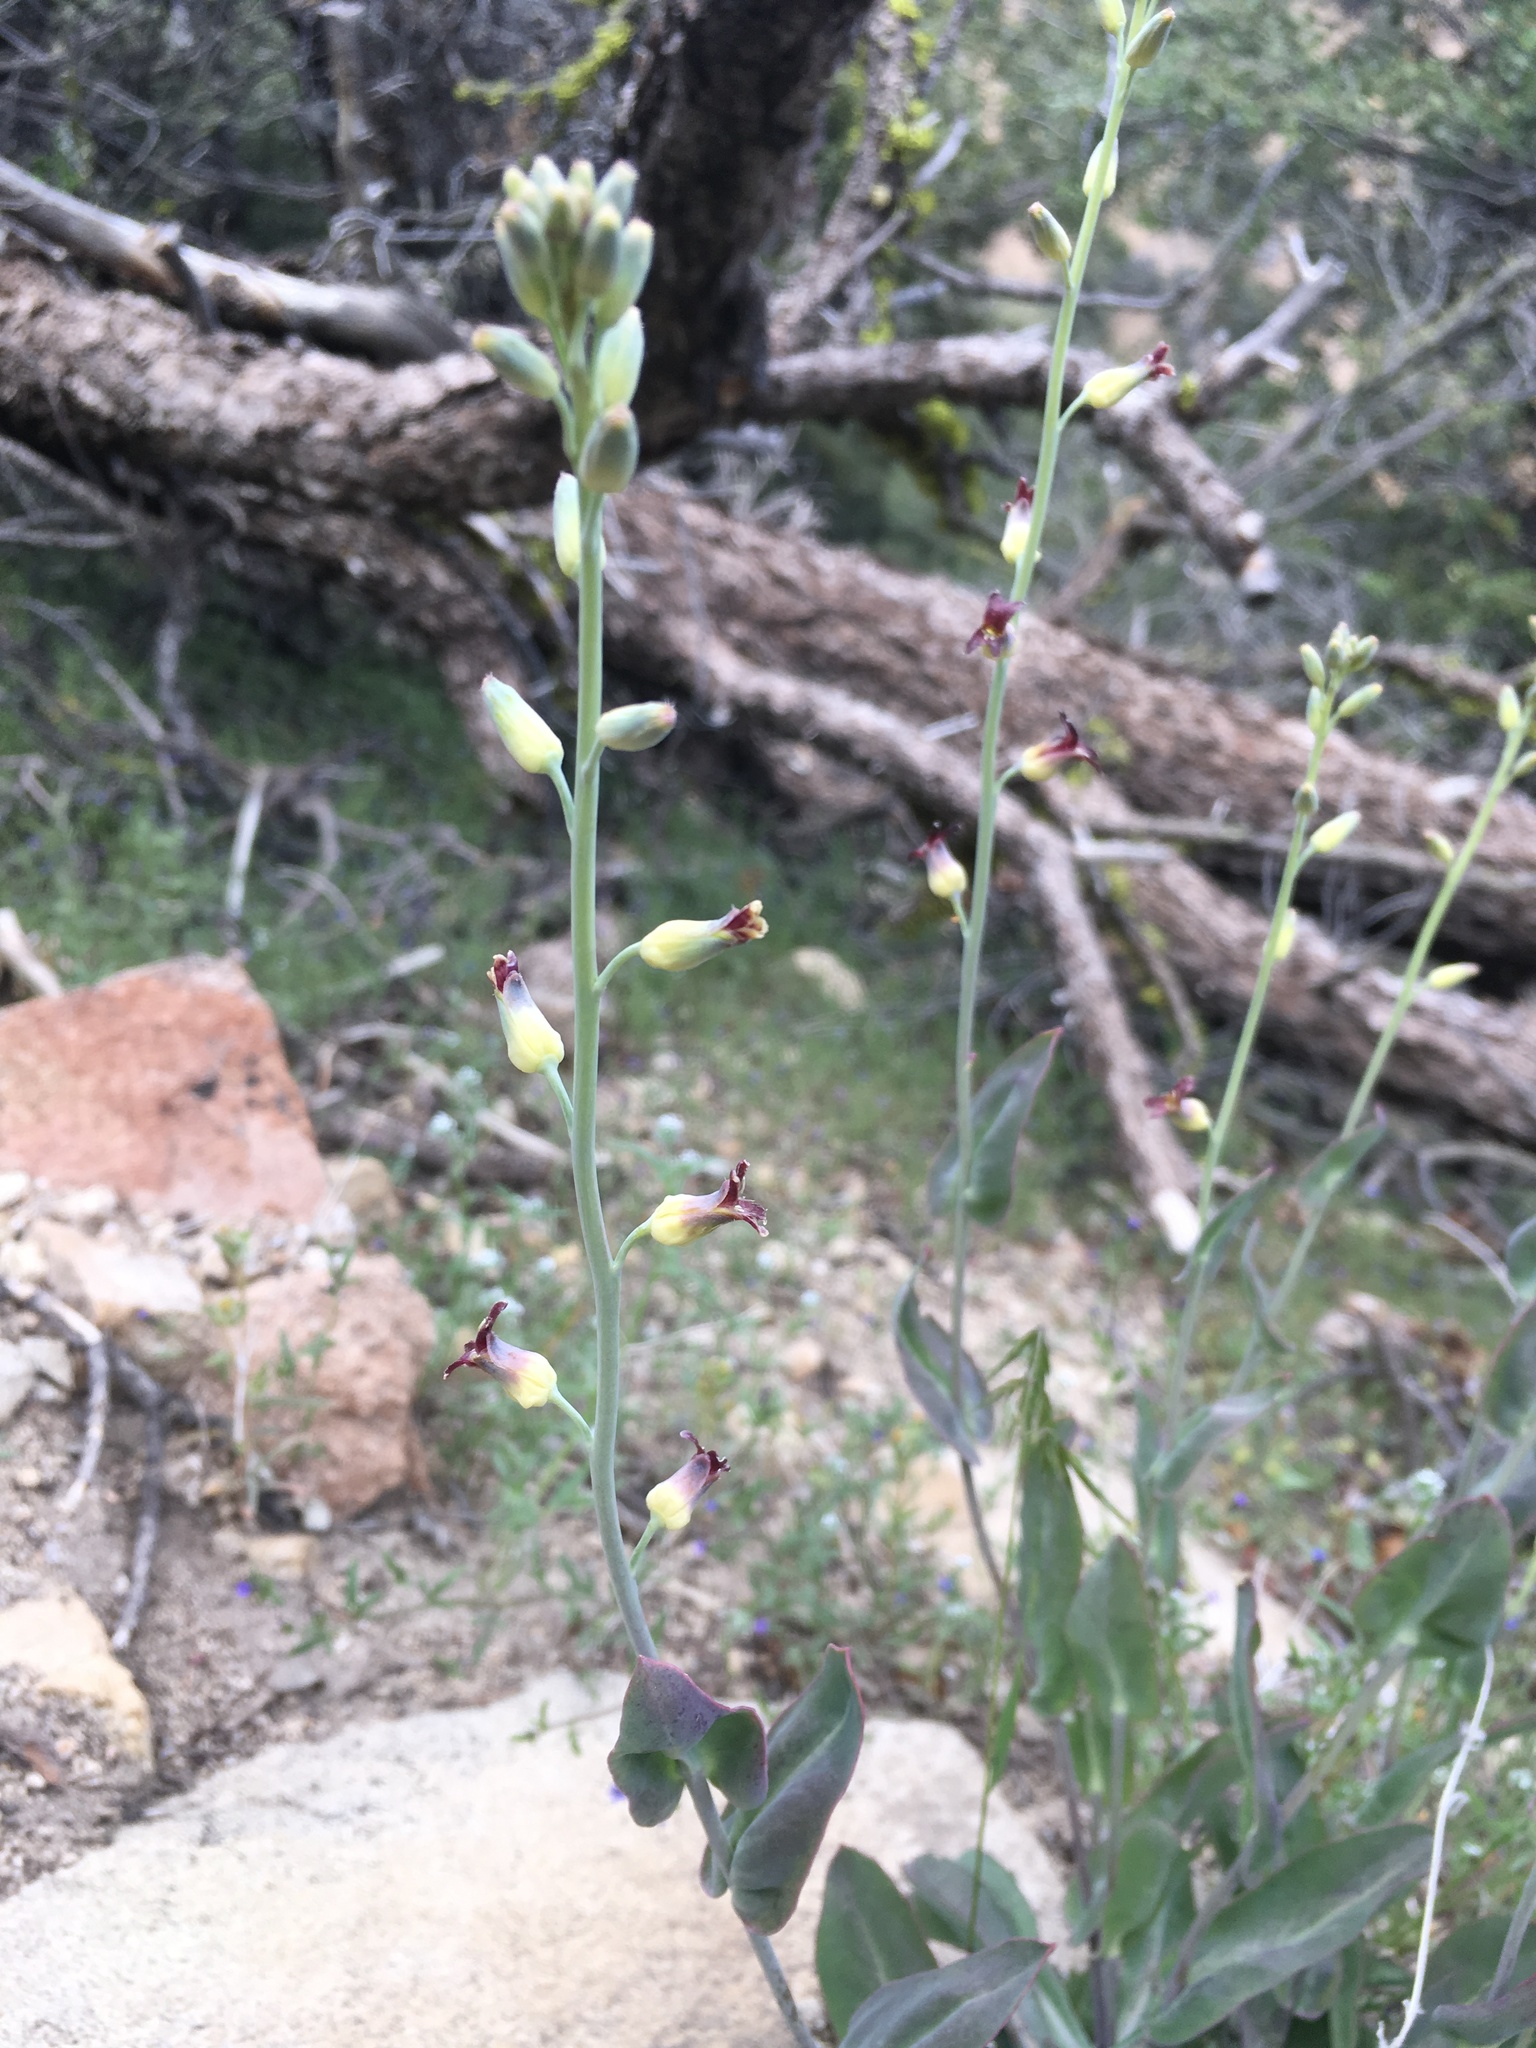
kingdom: Plantae
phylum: Tracheophyta
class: Magnoliopsida
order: Brassicales
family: Brassicaceae
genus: Streptanthus
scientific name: Streptanthus cordatus
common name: Heart-leaf jewel-flower
